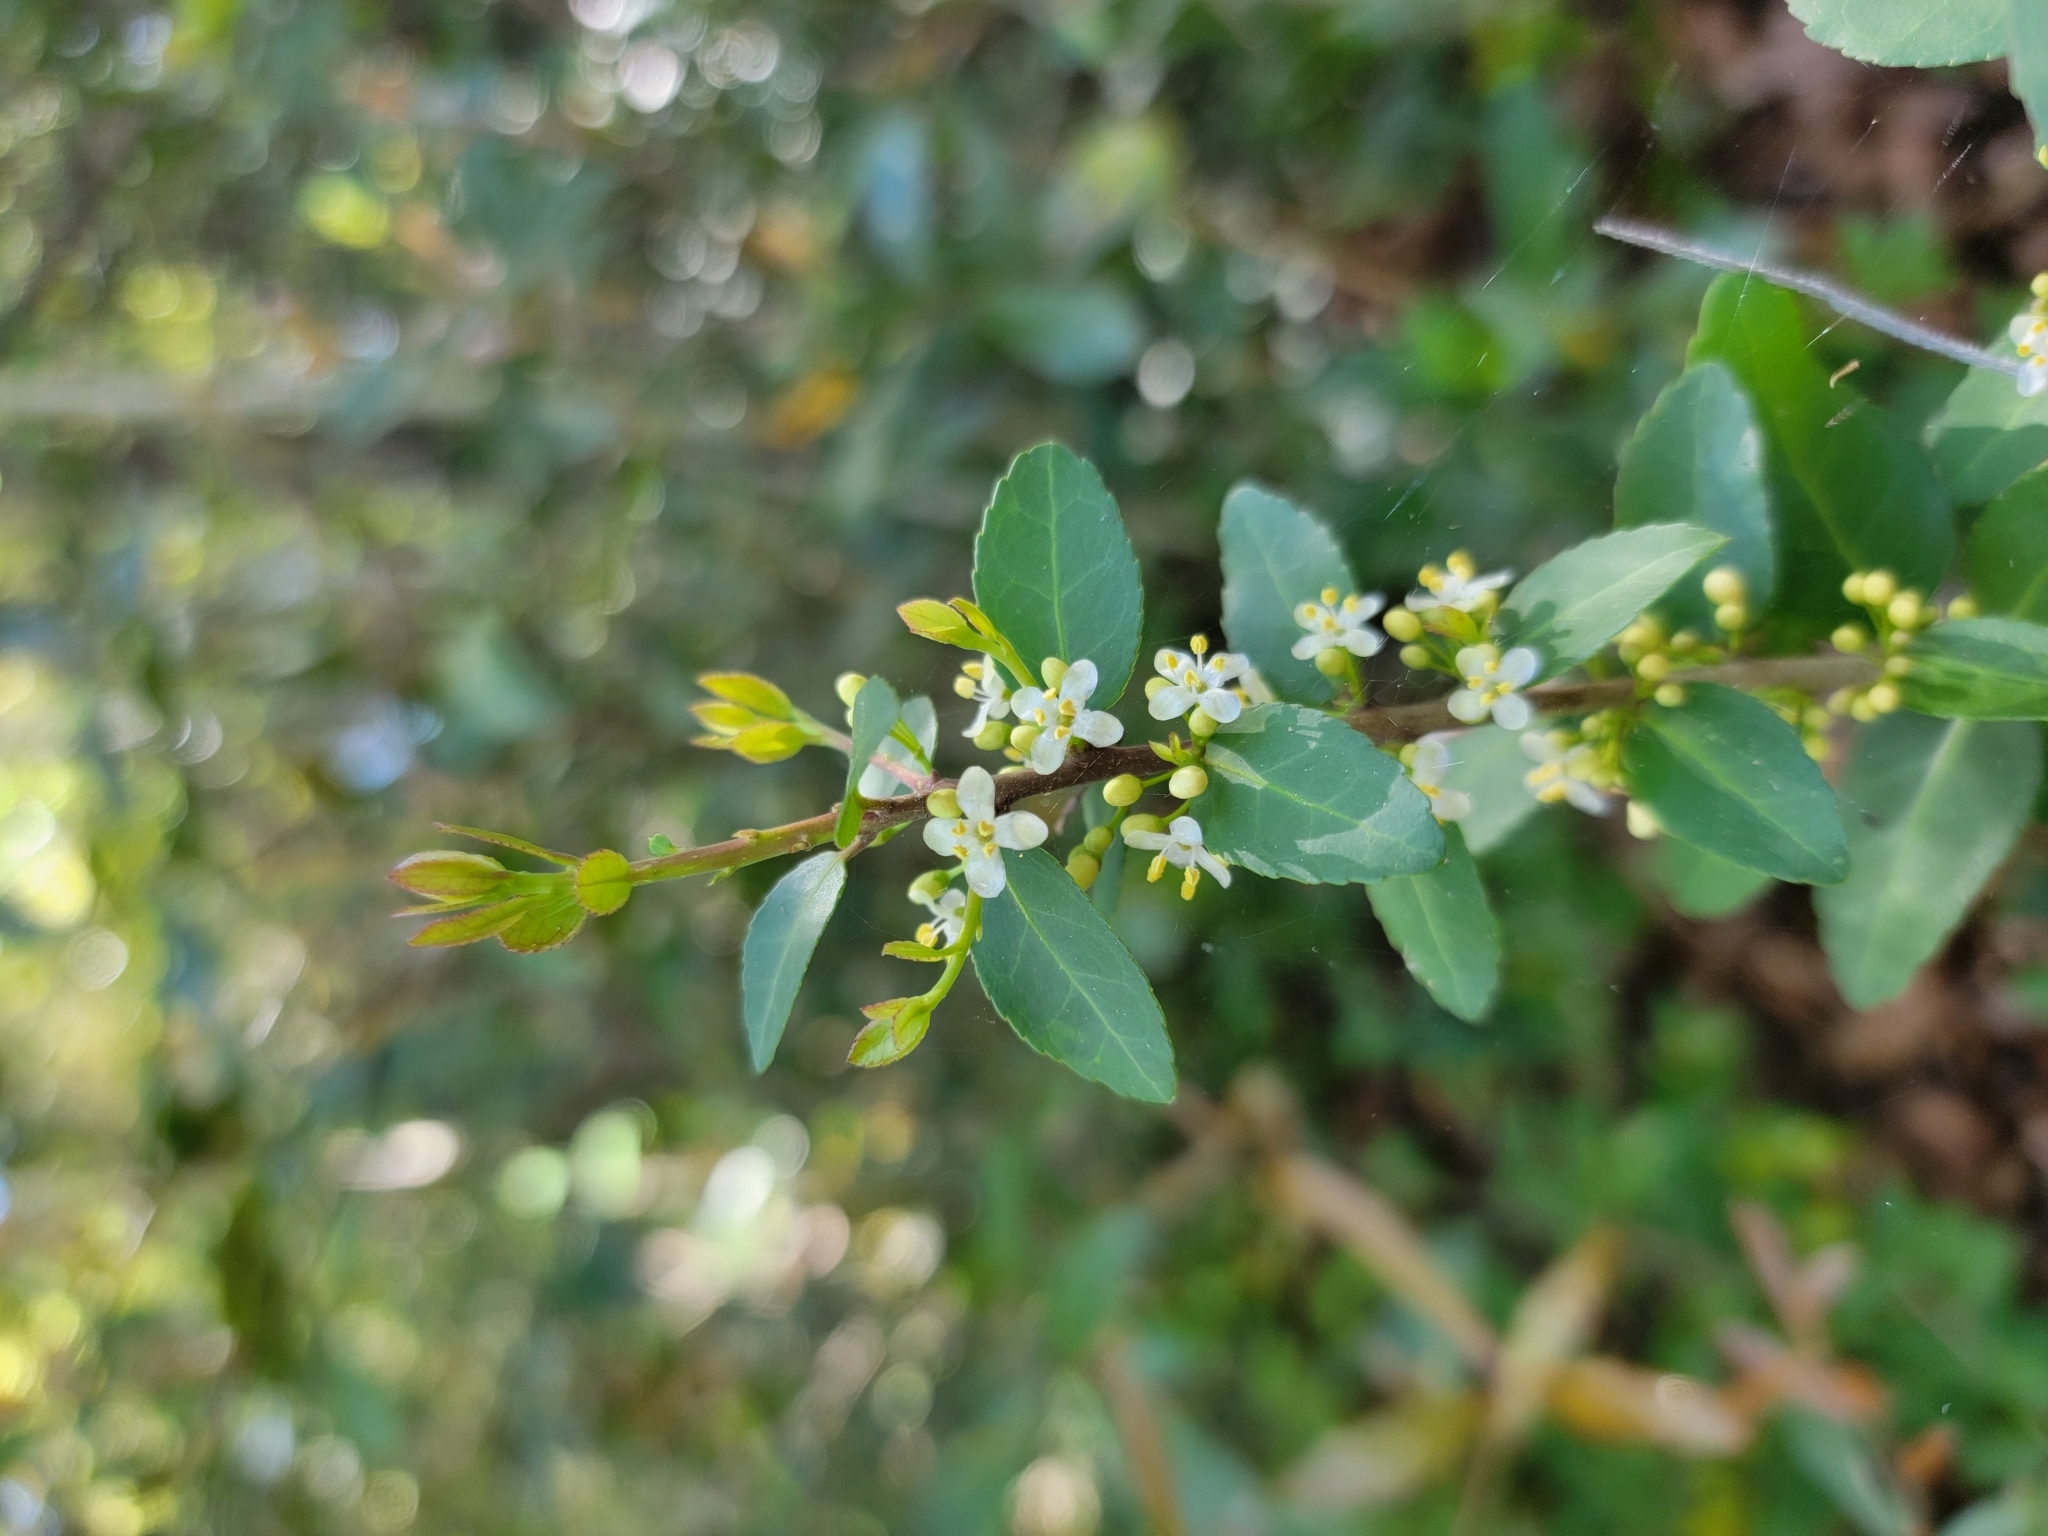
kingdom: Plantae
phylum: Tracheophyta
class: Magnoliopsida
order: Aquifoliales
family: Aquifoliaceae
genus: Ilex
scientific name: Ilex vomitoria
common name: Yaupon holly
